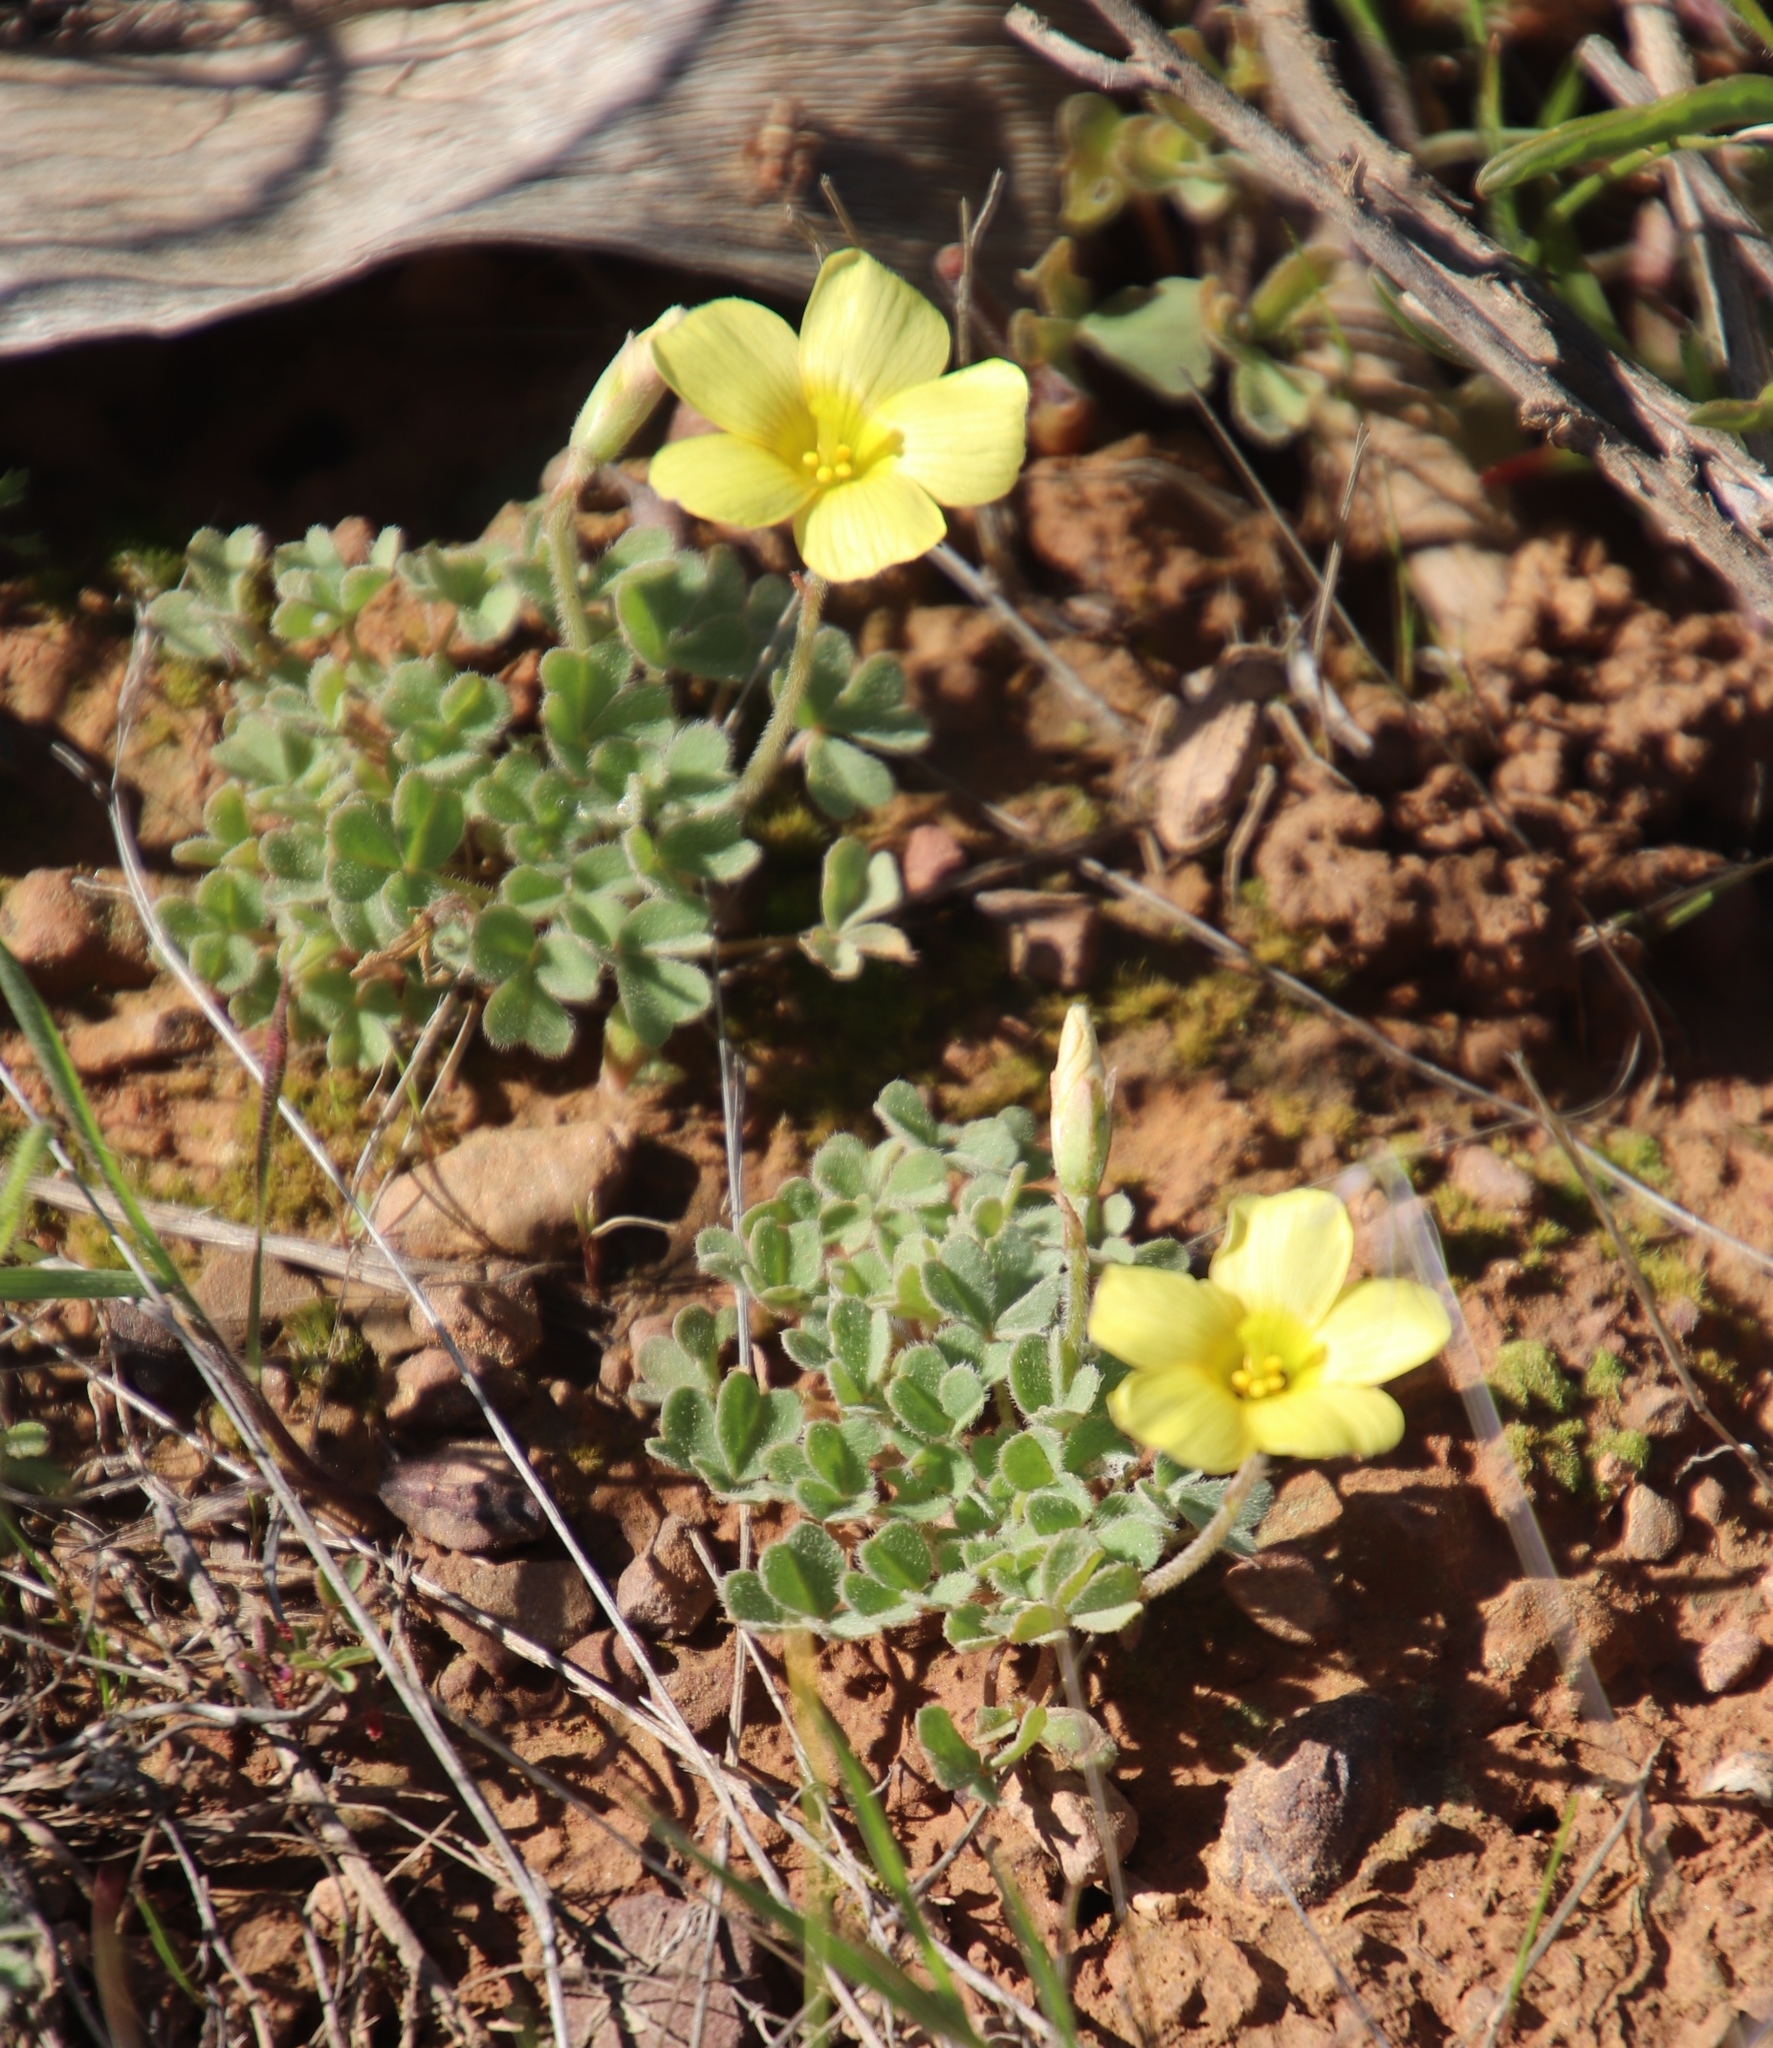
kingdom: Plantae
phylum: Tracheophyta
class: Magnoliopsida
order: Oxalidales
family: Oxalidaceae
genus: Oxalis
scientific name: Oxalis obtusa
